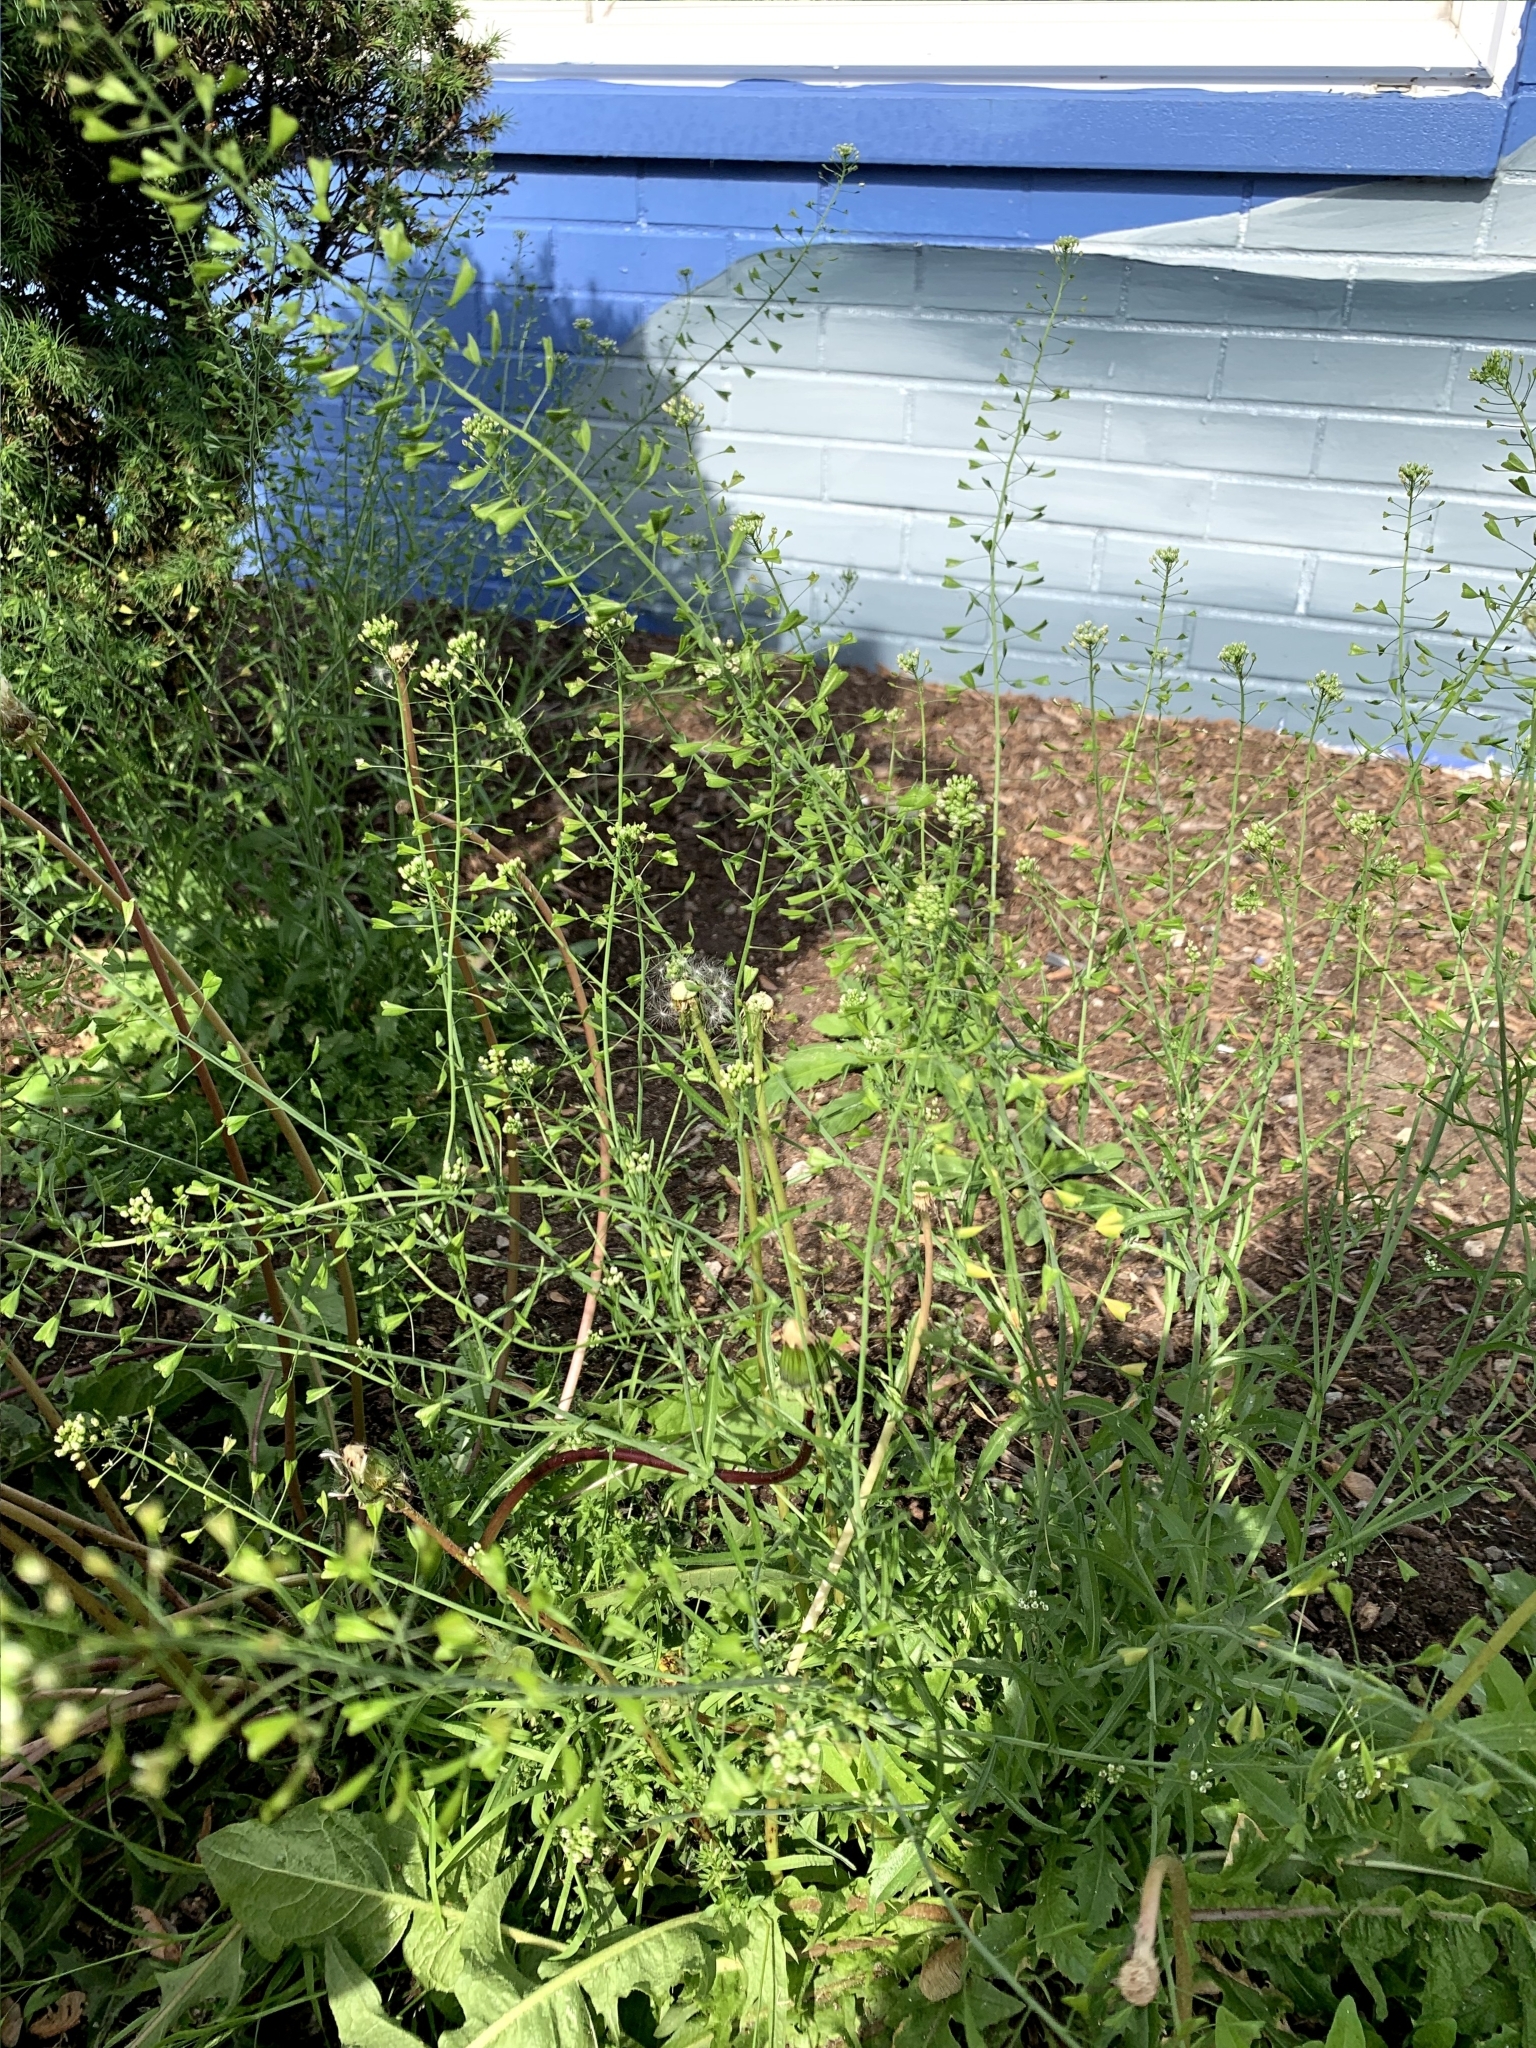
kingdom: Plantae
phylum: Tracheophyta
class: Magnoliopsida
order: Brassicales
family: Brassicaceae
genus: Capsella
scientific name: Capsella bursa-pastoris
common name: Shepherd's purse
